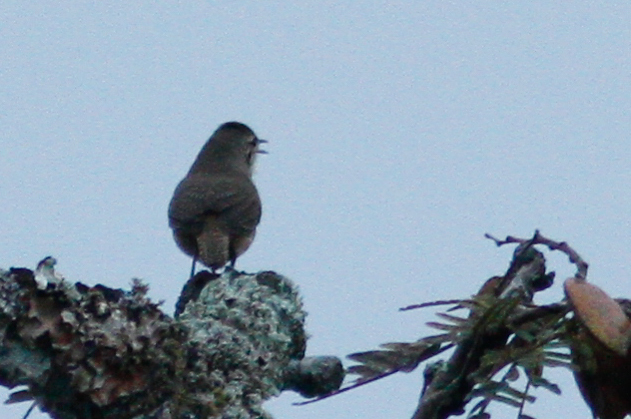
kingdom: Animalia
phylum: Chordata
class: Aves
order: Passeriformes
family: Troglodytidae
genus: Troglodytes
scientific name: Troglodytes aedon
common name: House wren
